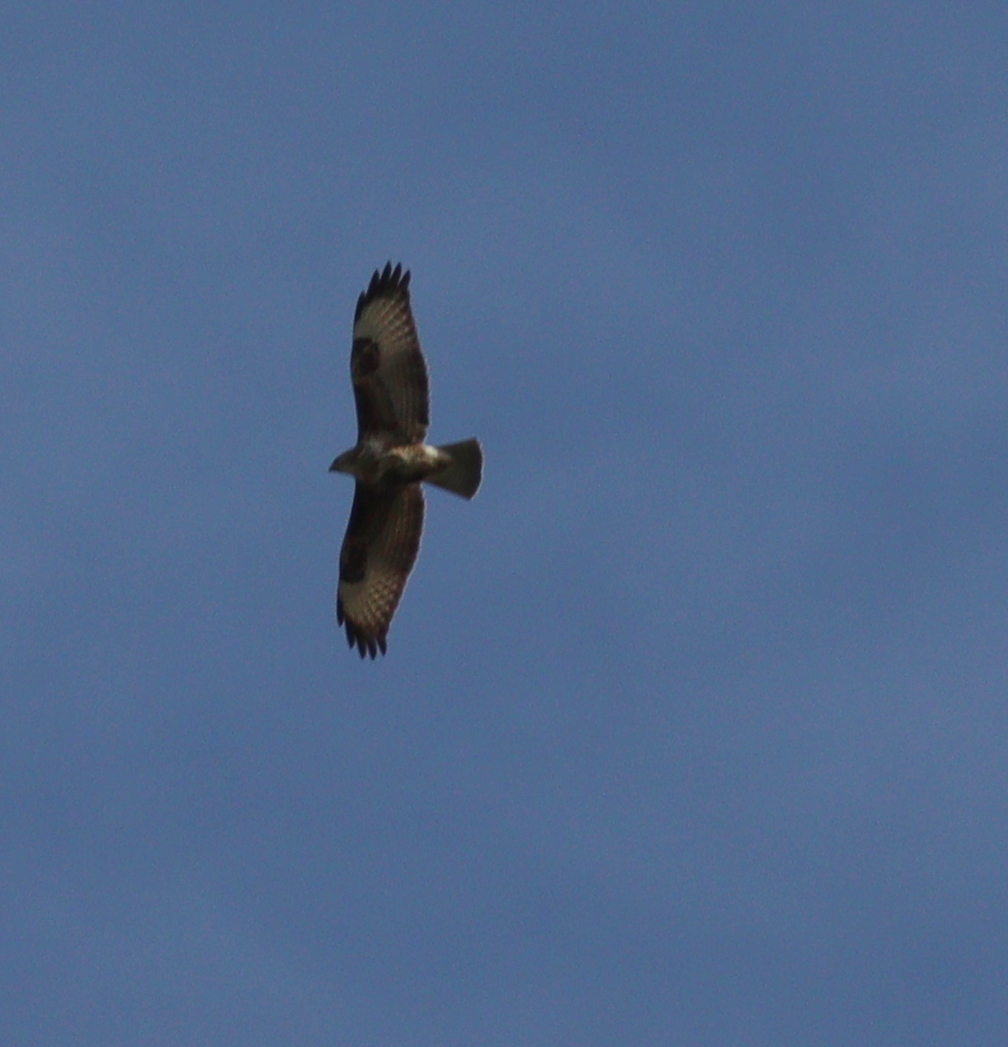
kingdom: Animalia
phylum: Chordata
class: Aves
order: Accipitriformes
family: Accipitridae
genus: Buteo
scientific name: Buteo buteo
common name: Common buzzard
